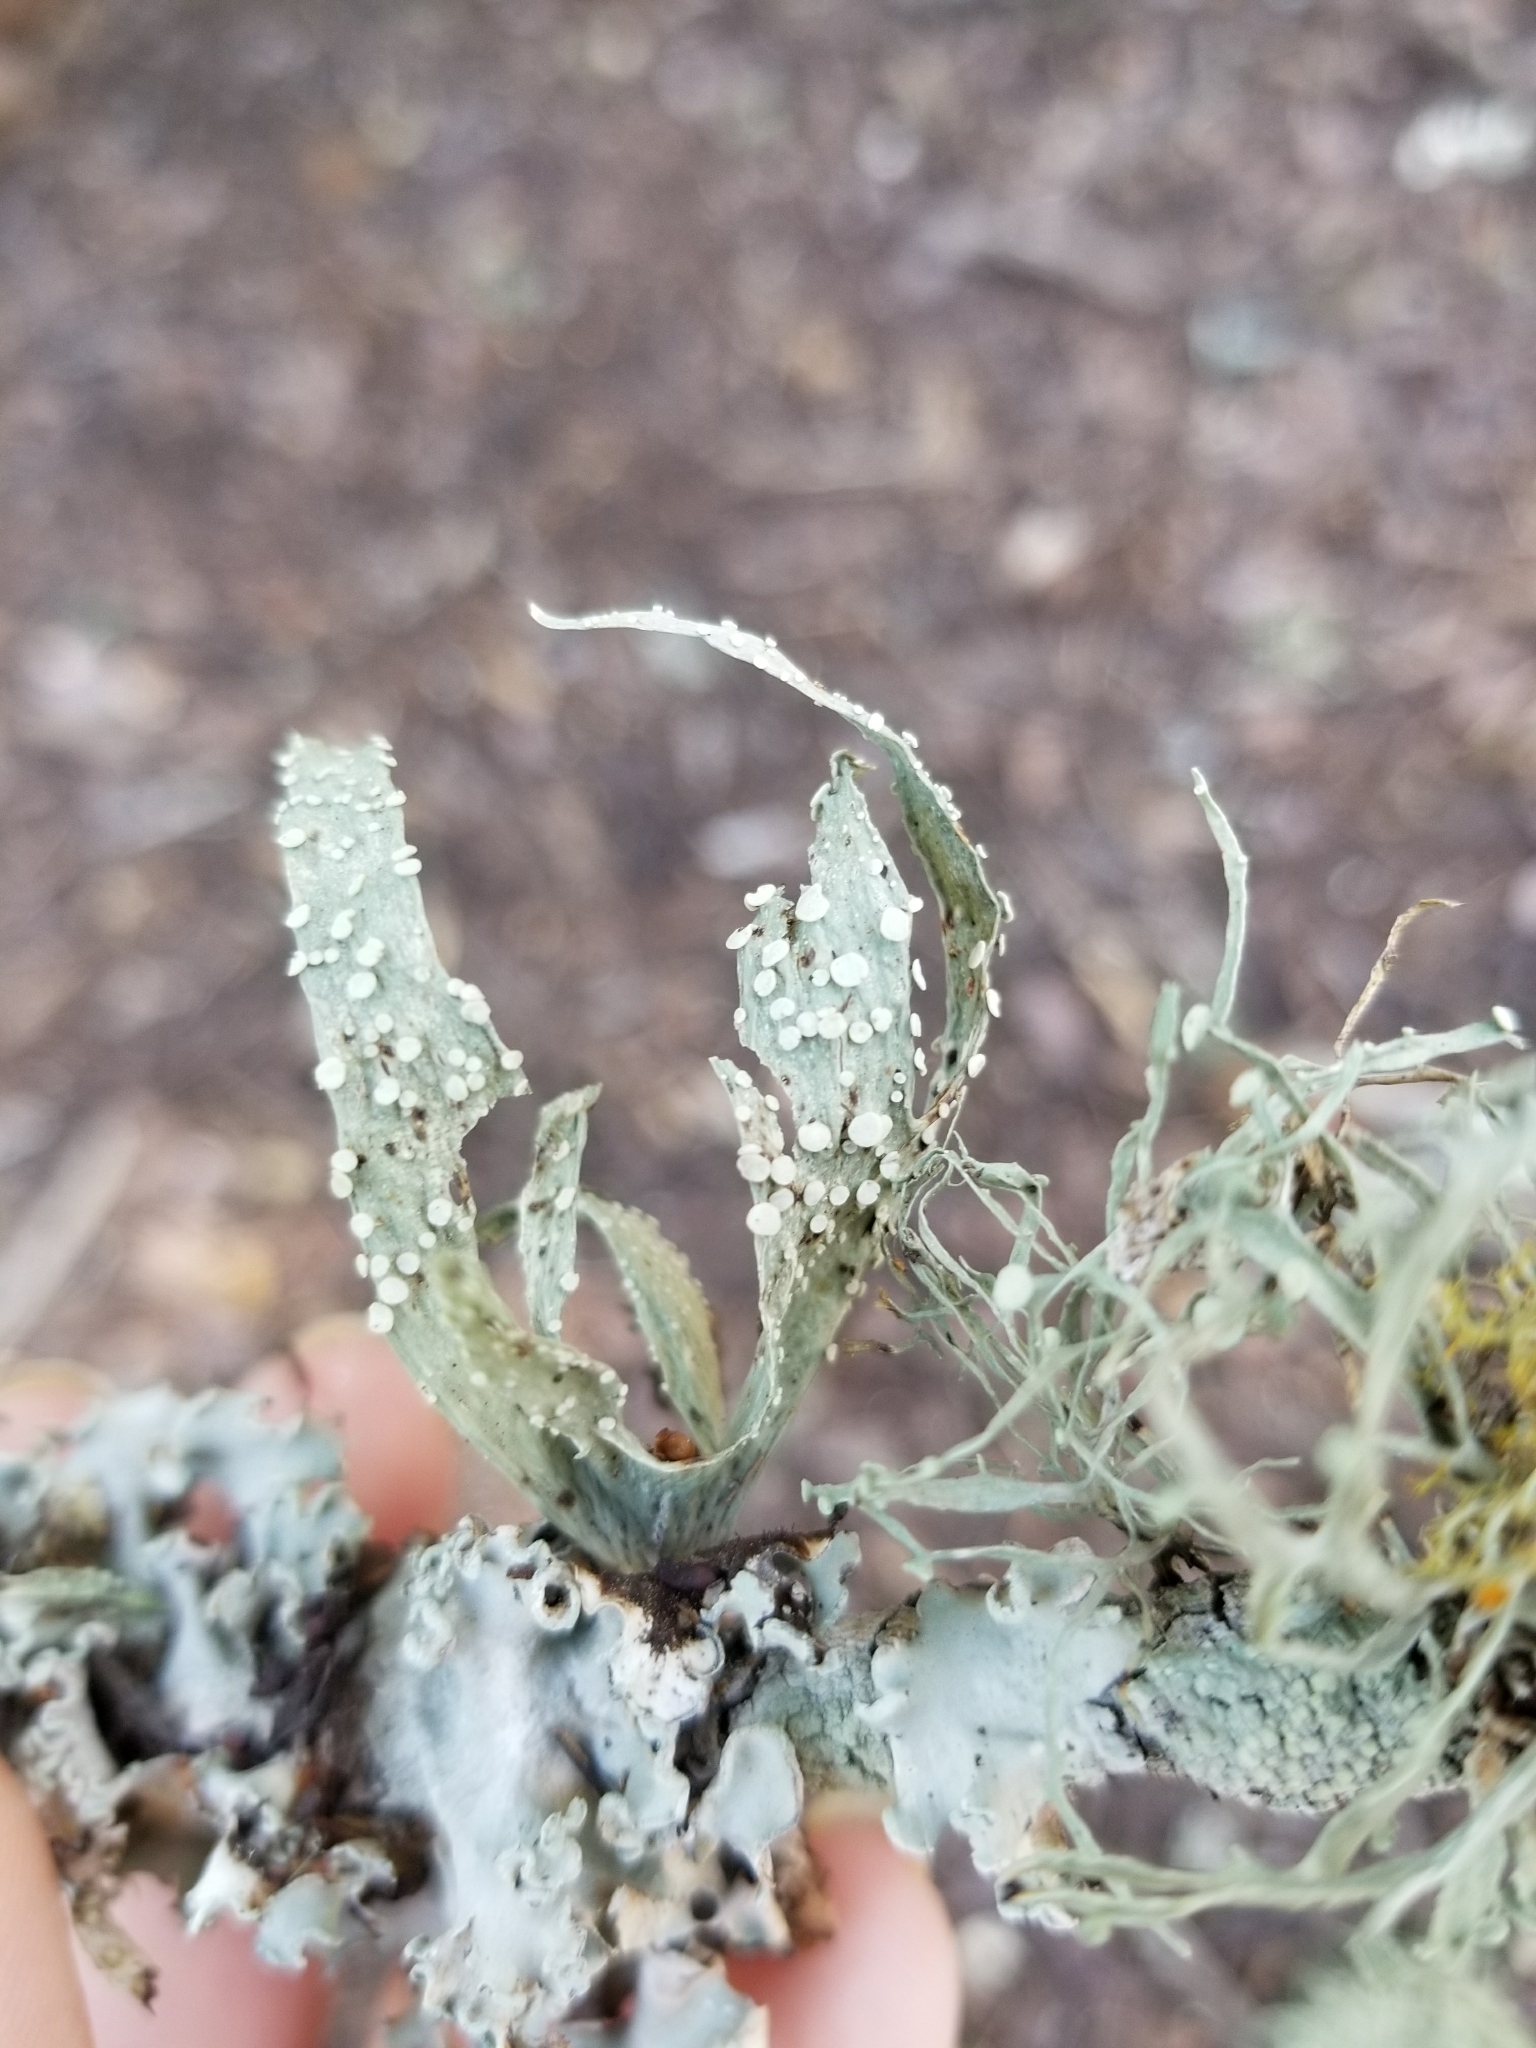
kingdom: Fungi
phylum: Ascomycota
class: Lecanoromycetes
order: Lecanorales
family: Ramalinaceae
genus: Ramalina
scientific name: Ramalina celastri
